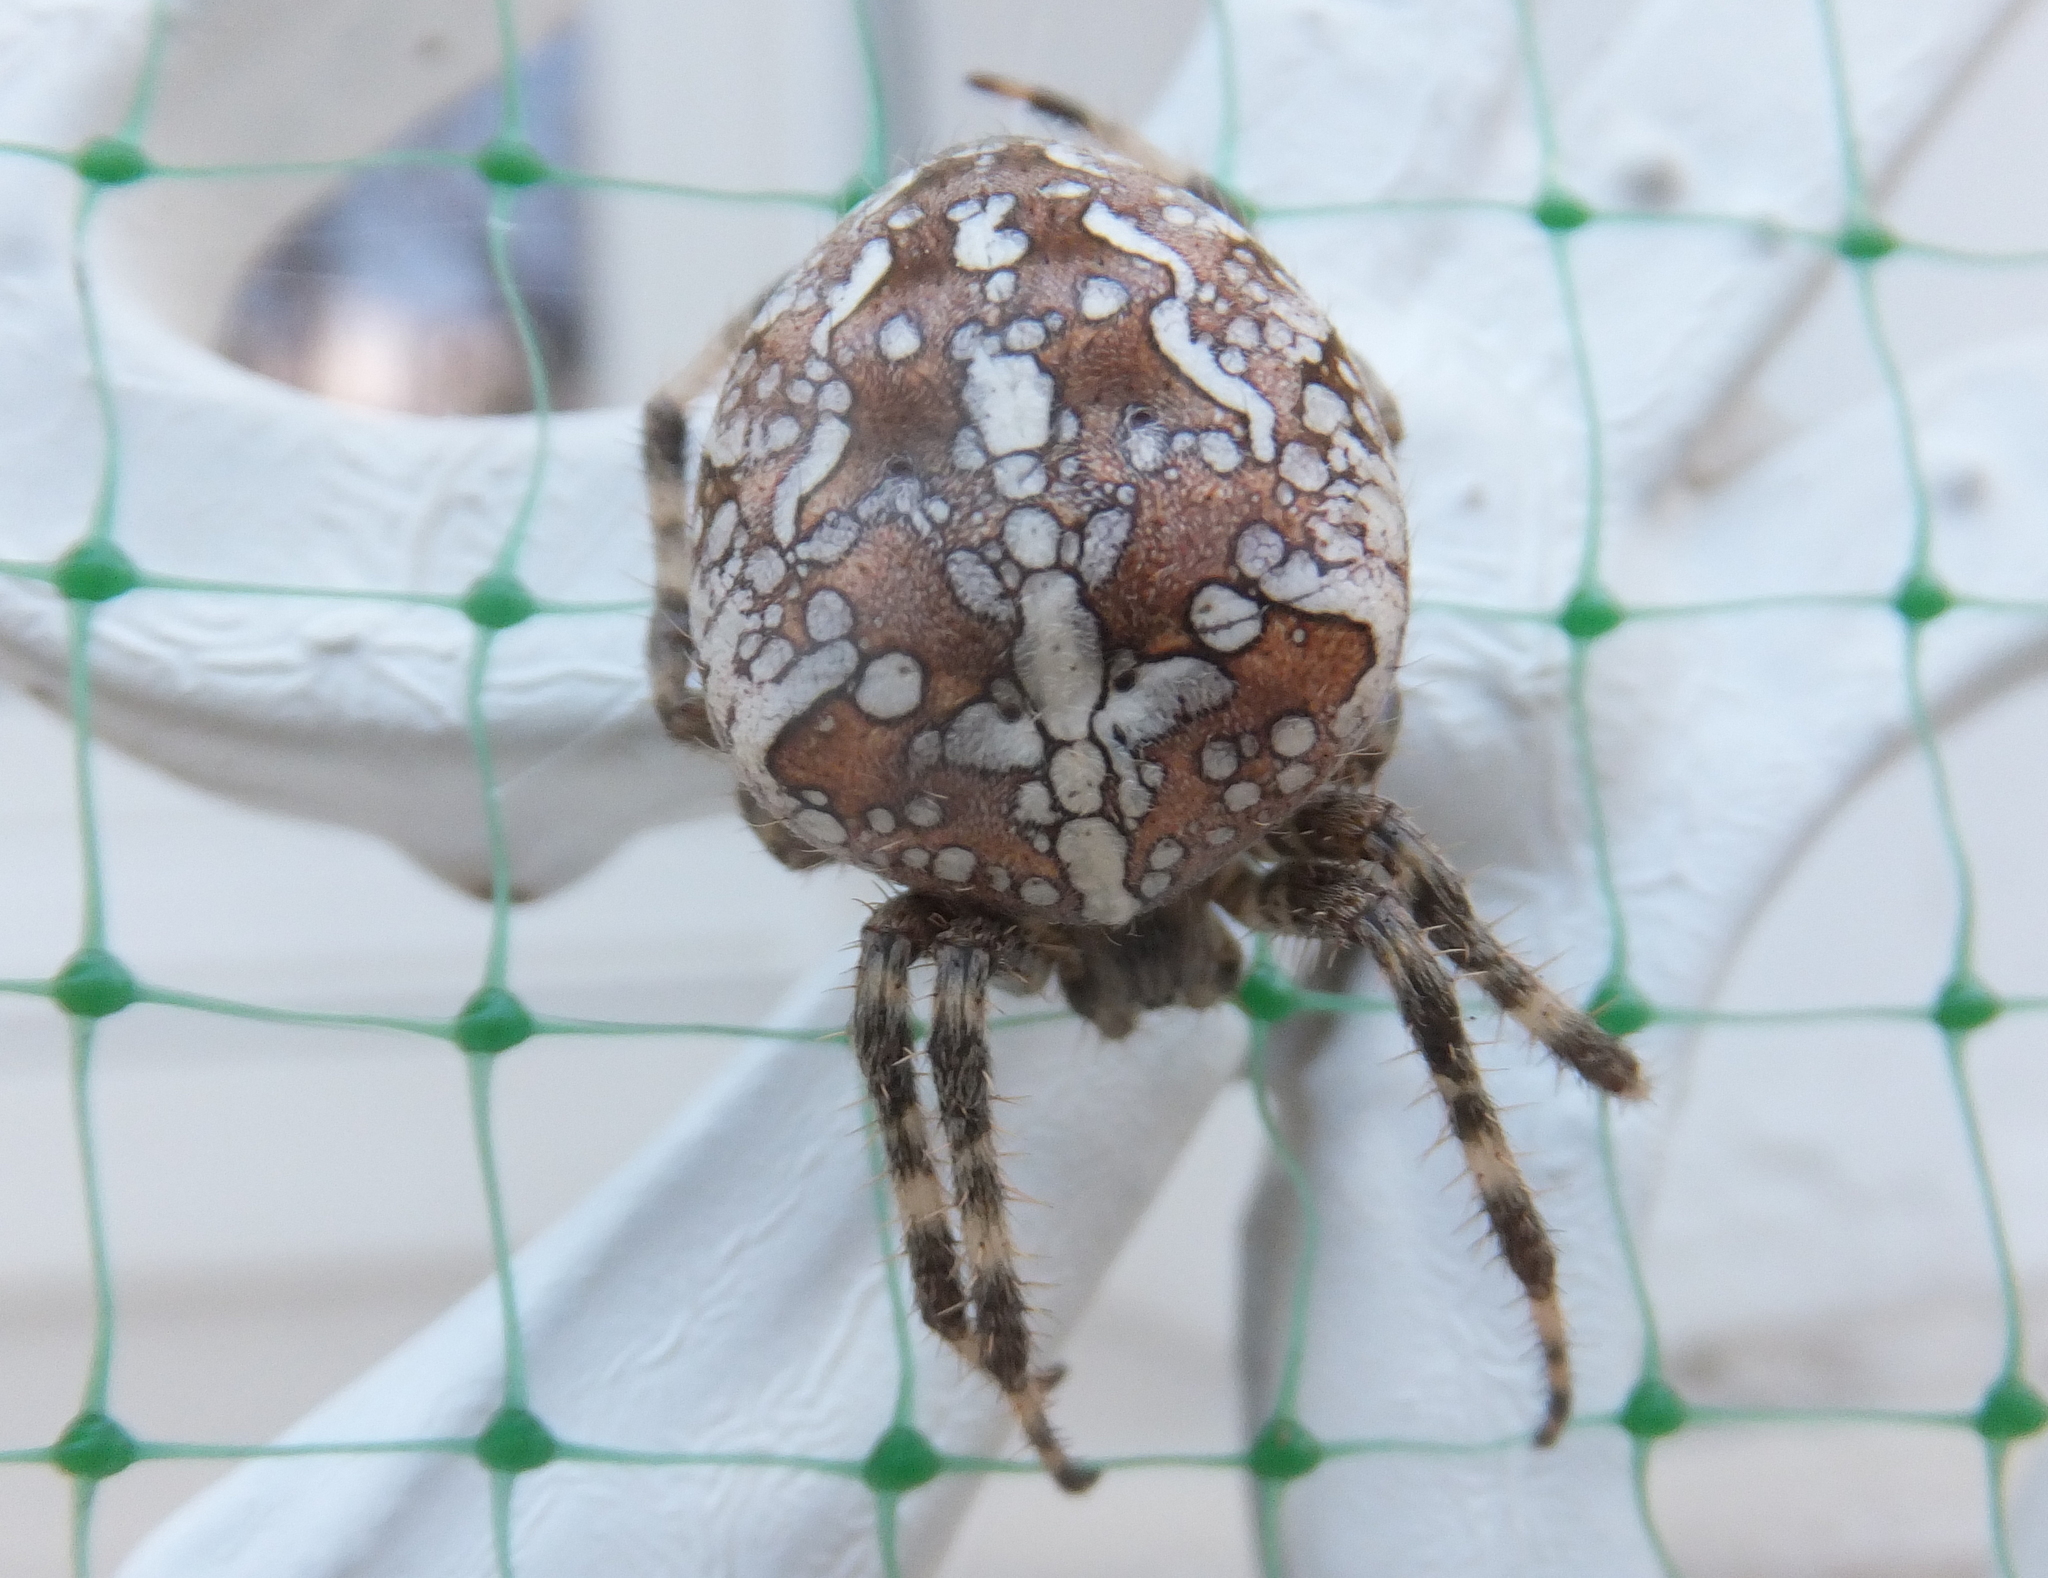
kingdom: Animalia
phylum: Arthropoda
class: Arachnida
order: Araneae
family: Araneidae
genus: Araneus
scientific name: Araneus diadematus
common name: Cross orbweaver
